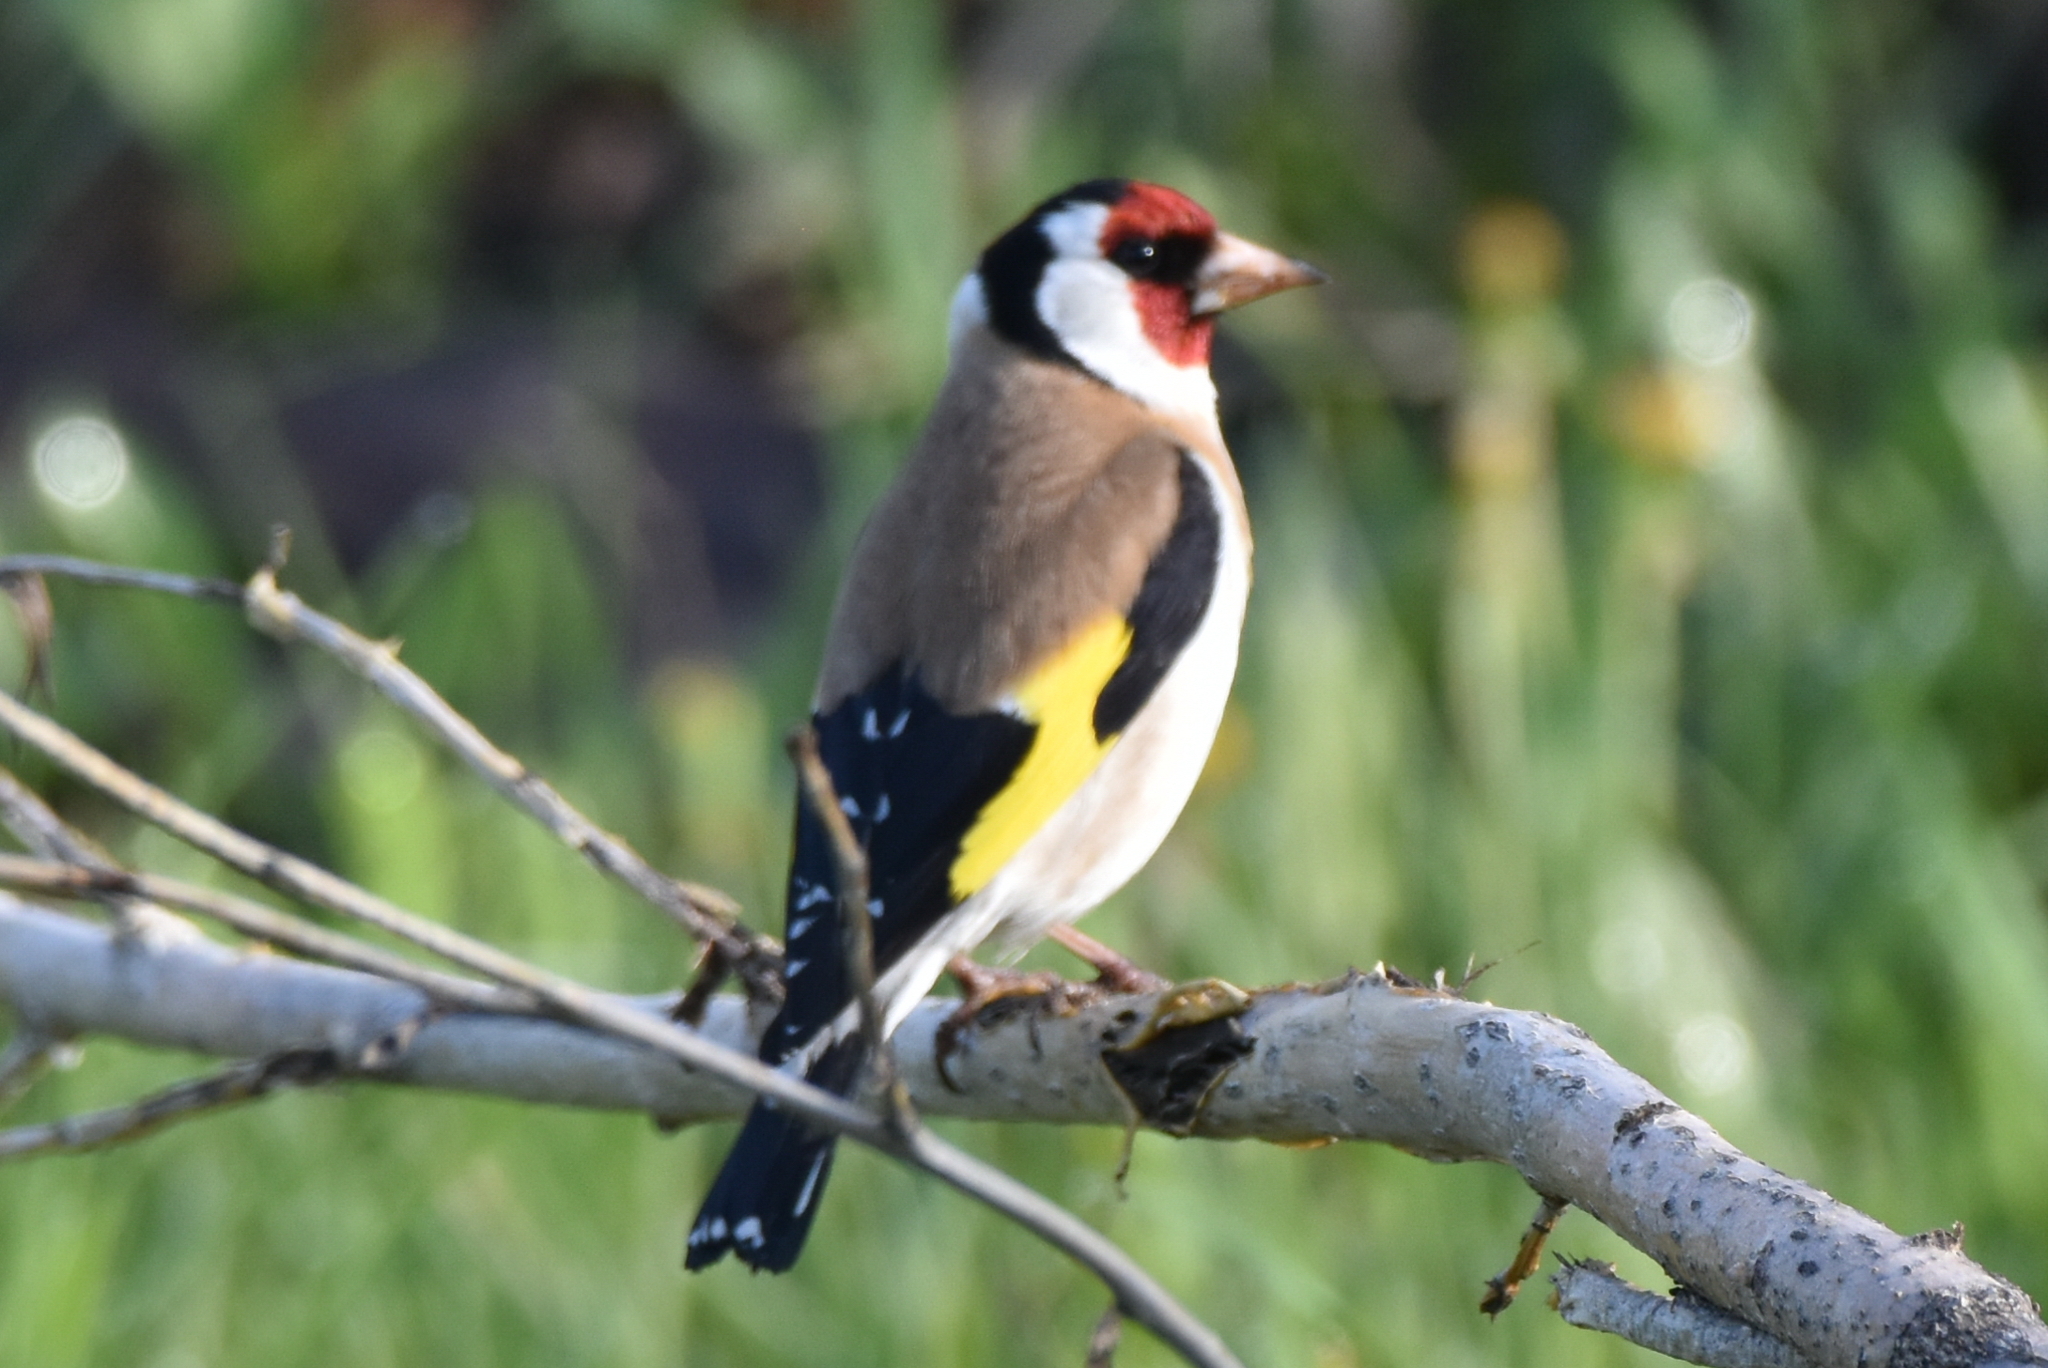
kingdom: Animalia
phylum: Chordata
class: Aves
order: Passeriformes
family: Fringillidae
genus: Carduelis
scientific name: Carduelis carduelis
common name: European goldfinch
